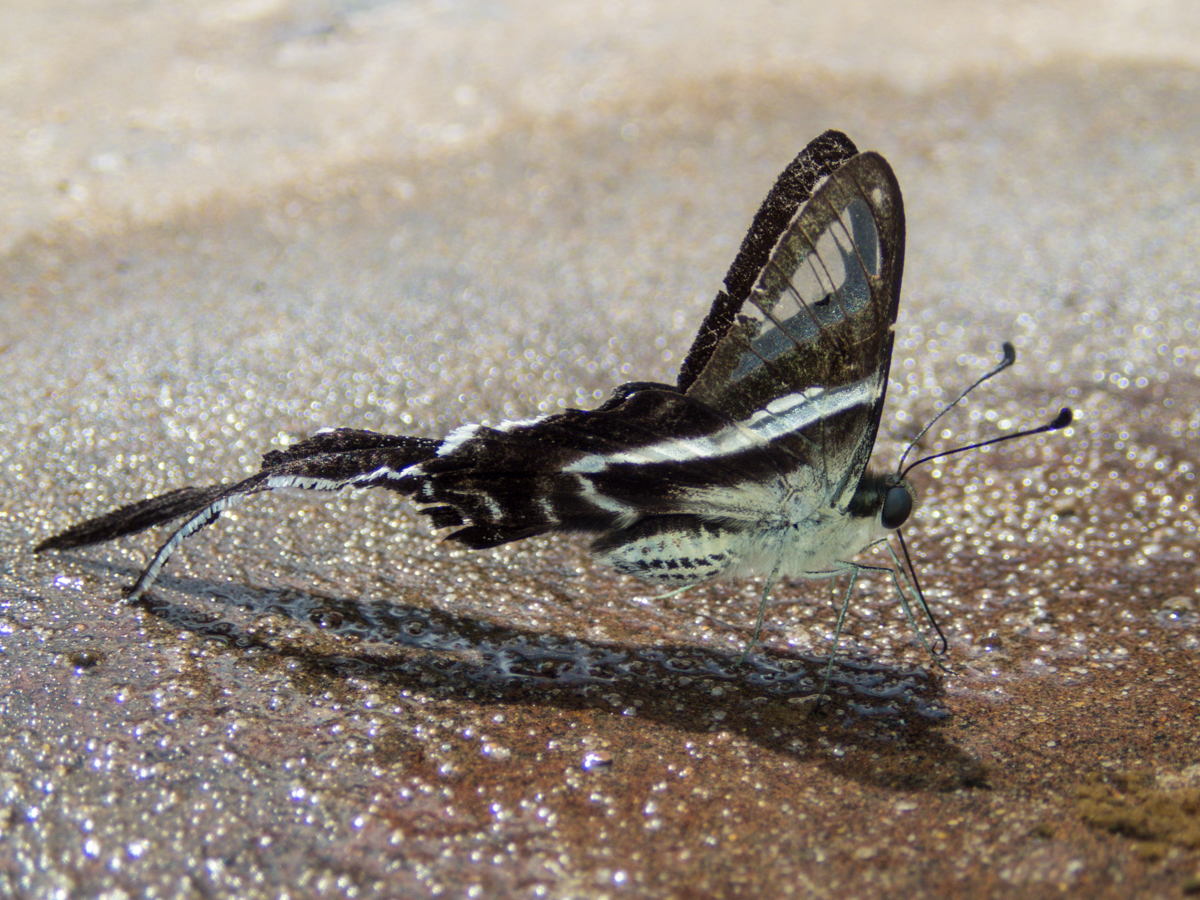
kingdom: Animalia
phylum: Arthropoda
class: Insecta
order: Lepidoptera
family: Papilionidae
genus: Lamproptera
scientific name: Lamproptera curius
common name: White dragontail
